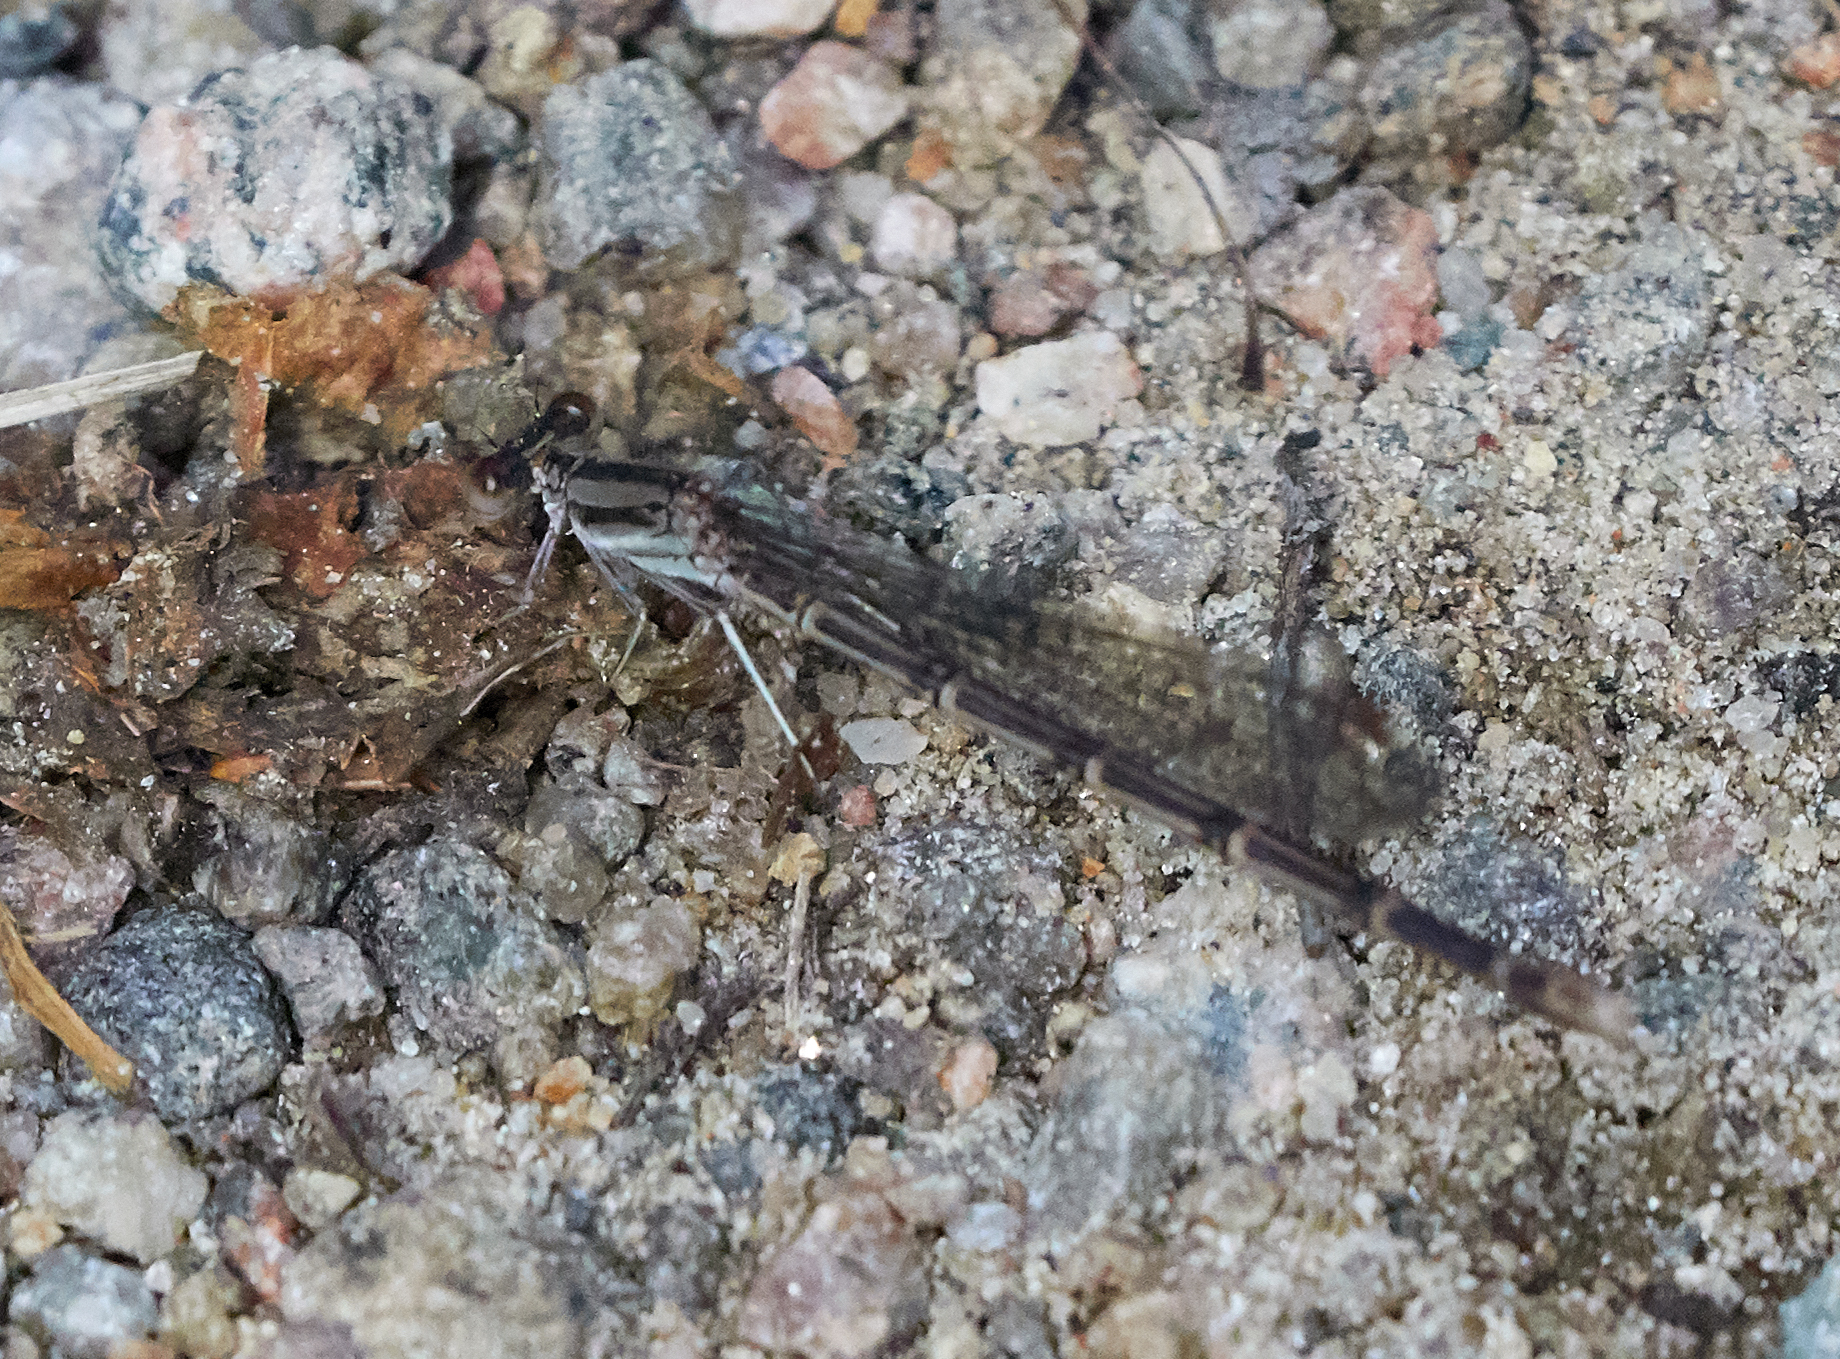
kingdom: Animalia
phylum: Arthropoda
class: Insecta
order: Odonata
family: Coenagrionidae
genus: Argia
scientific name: Argia fumipennis
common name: Variable dancer
